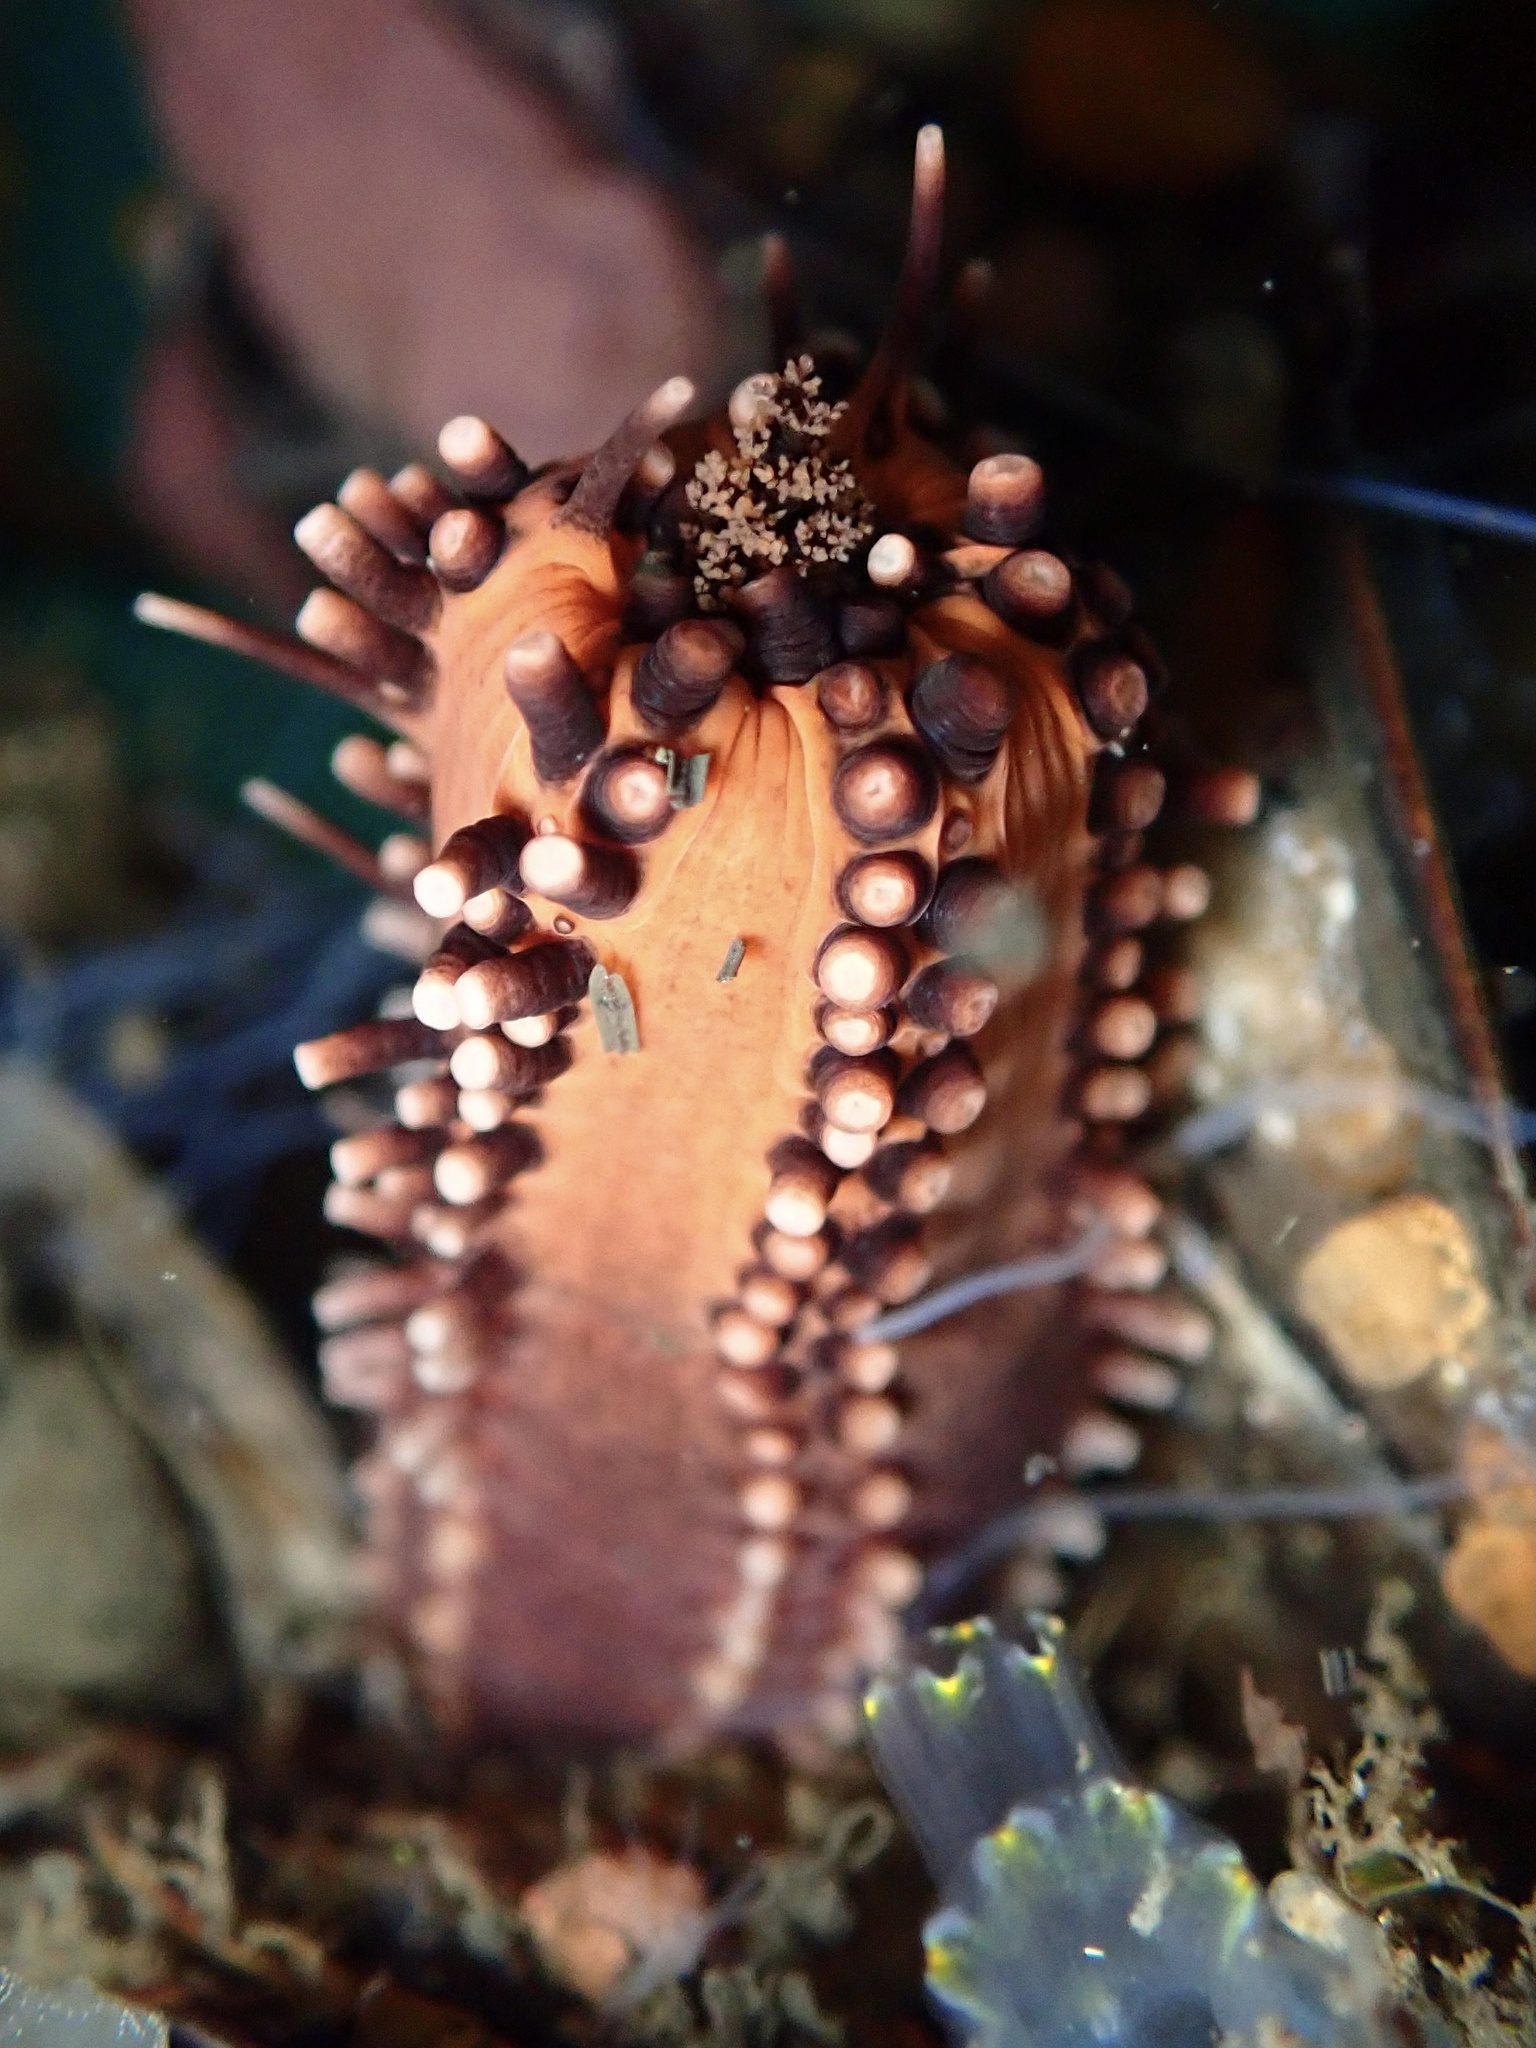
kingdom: Animalia
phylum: Echinodermata
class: Holothuroidea
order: Dendrochirotida
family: Cucumariidae
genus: Cucumaria
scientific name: Cucumaria miniata
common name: Orange sea cucumber
